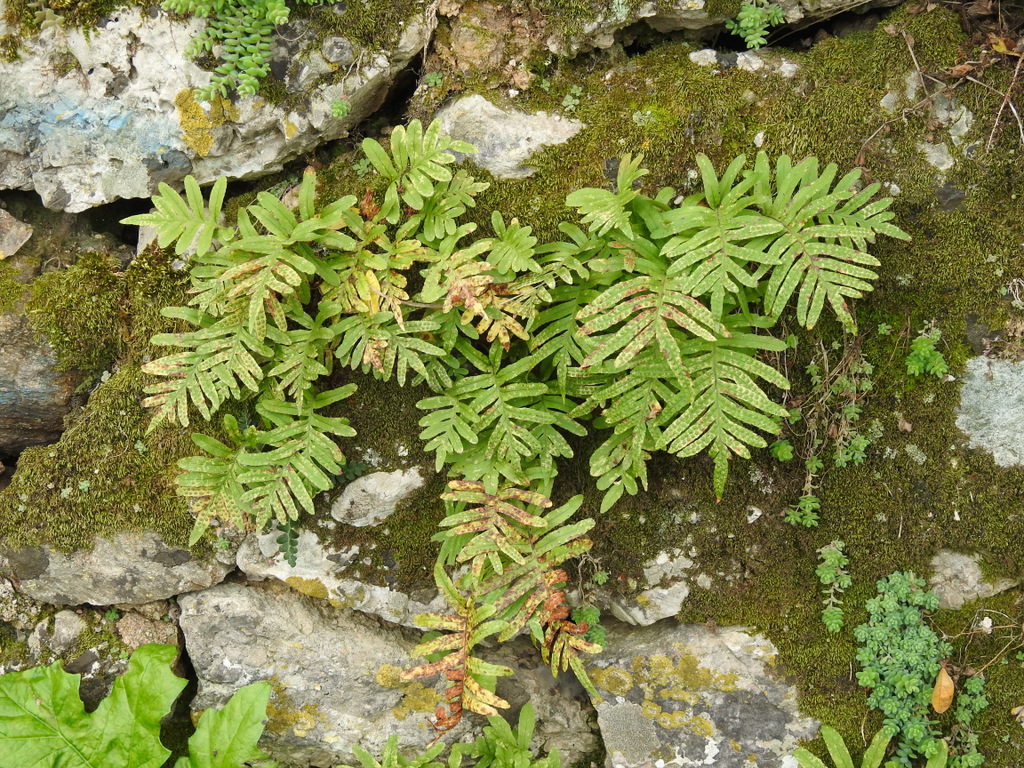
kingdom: Plantae
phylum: Tracheophyta
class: Polypodiopsida
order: Polypodiales
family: Polypodiaceae
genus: Polypodium
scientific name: Polypodium cambricum
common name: Southern polypody
